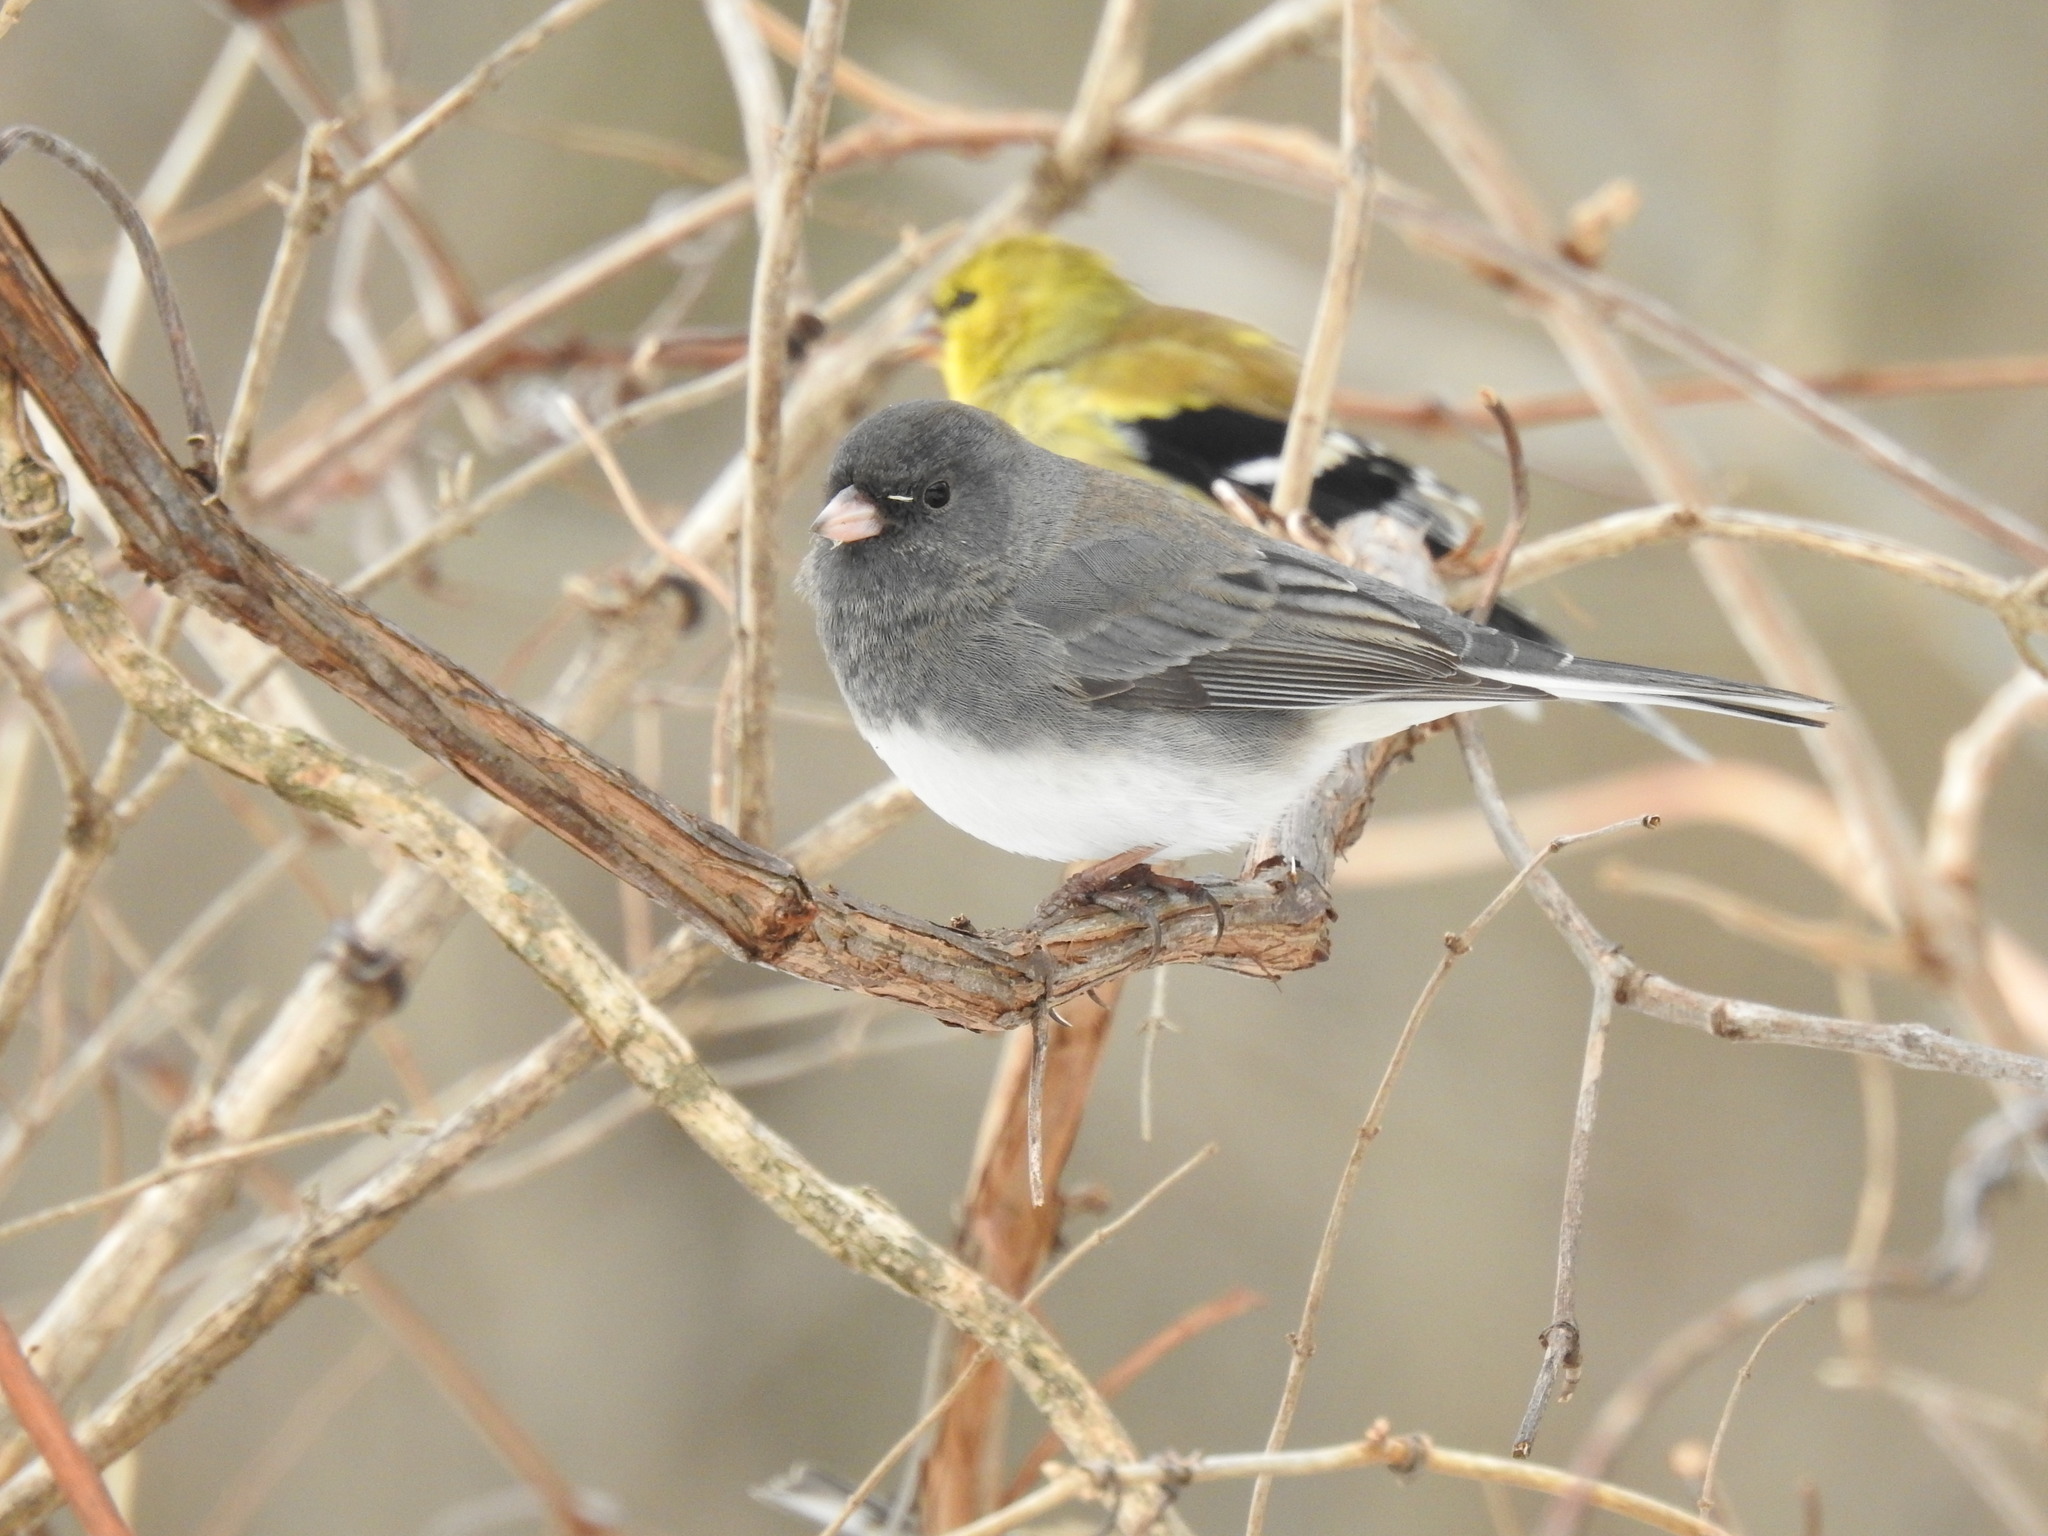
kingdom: Animalia
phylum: Chordata
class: Aves
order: Passeriformes
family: Passerellidae
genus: Junco
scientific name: Junco hyemalis
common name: Dark-eyed junco
